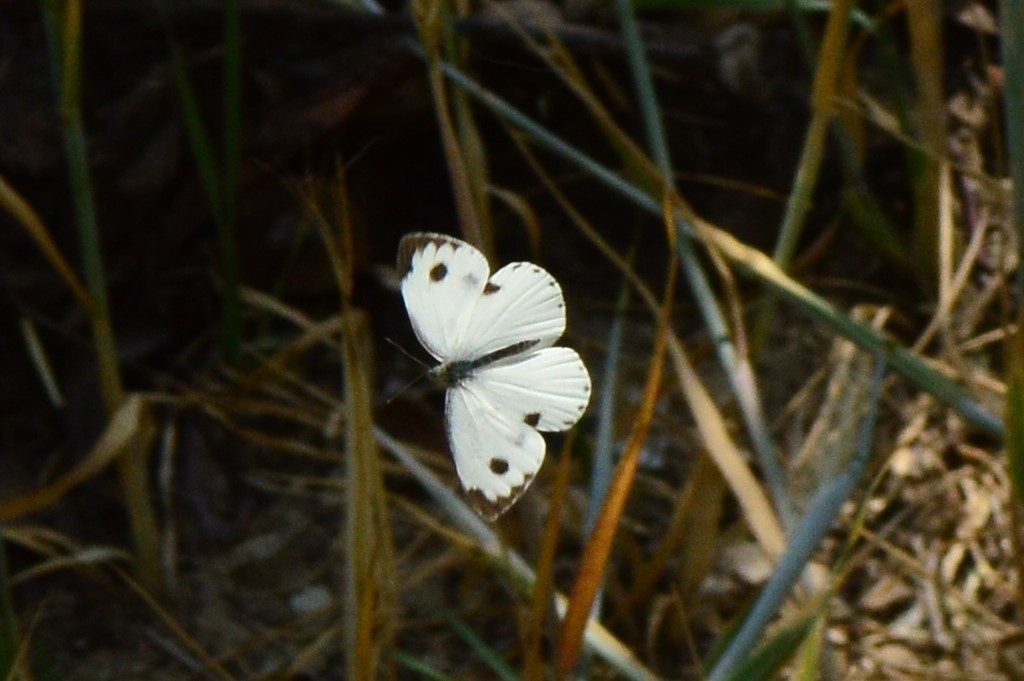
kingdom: Animalia
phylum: Arthropoda
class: Insecta
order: Lepidoptera
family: Pieridae
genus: Pieris
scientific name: Pieris canidia
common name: Indian cabbage white
